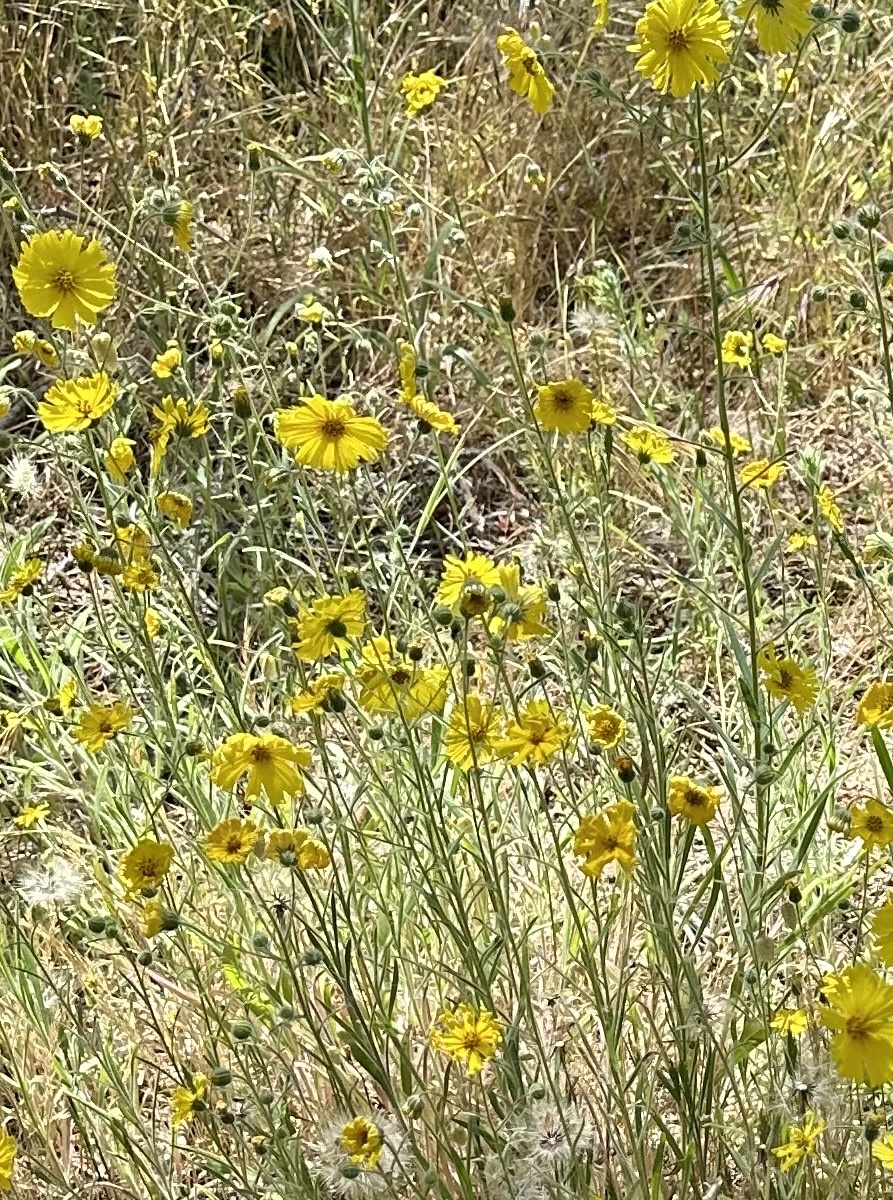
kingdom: Plantae
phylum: Tracheophyta
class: Magnoliopsida
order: Asterales
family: Asteraceae
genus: Madia
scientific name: Madia elegans
